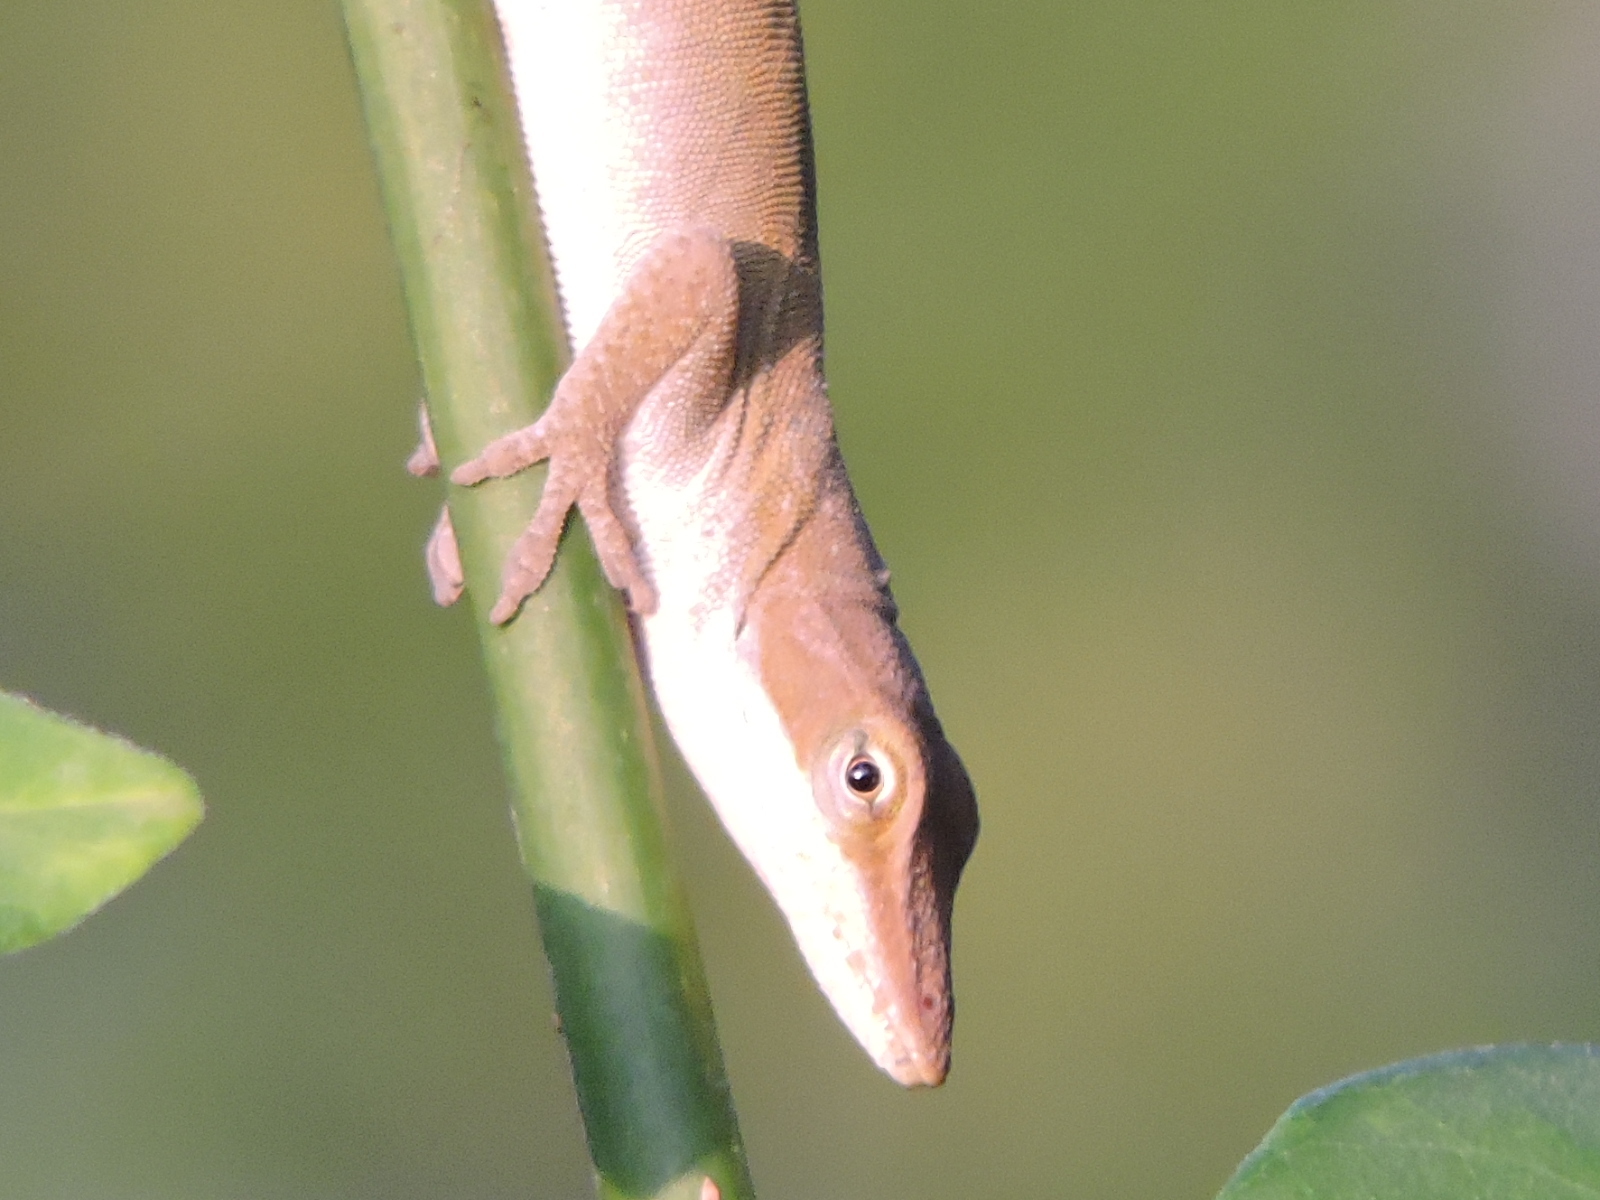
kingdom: Animalia
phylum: Chordata
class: Squamata
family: Dactyloidae
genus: Anolis
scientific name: Anolis carolinensis
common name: Green anole
